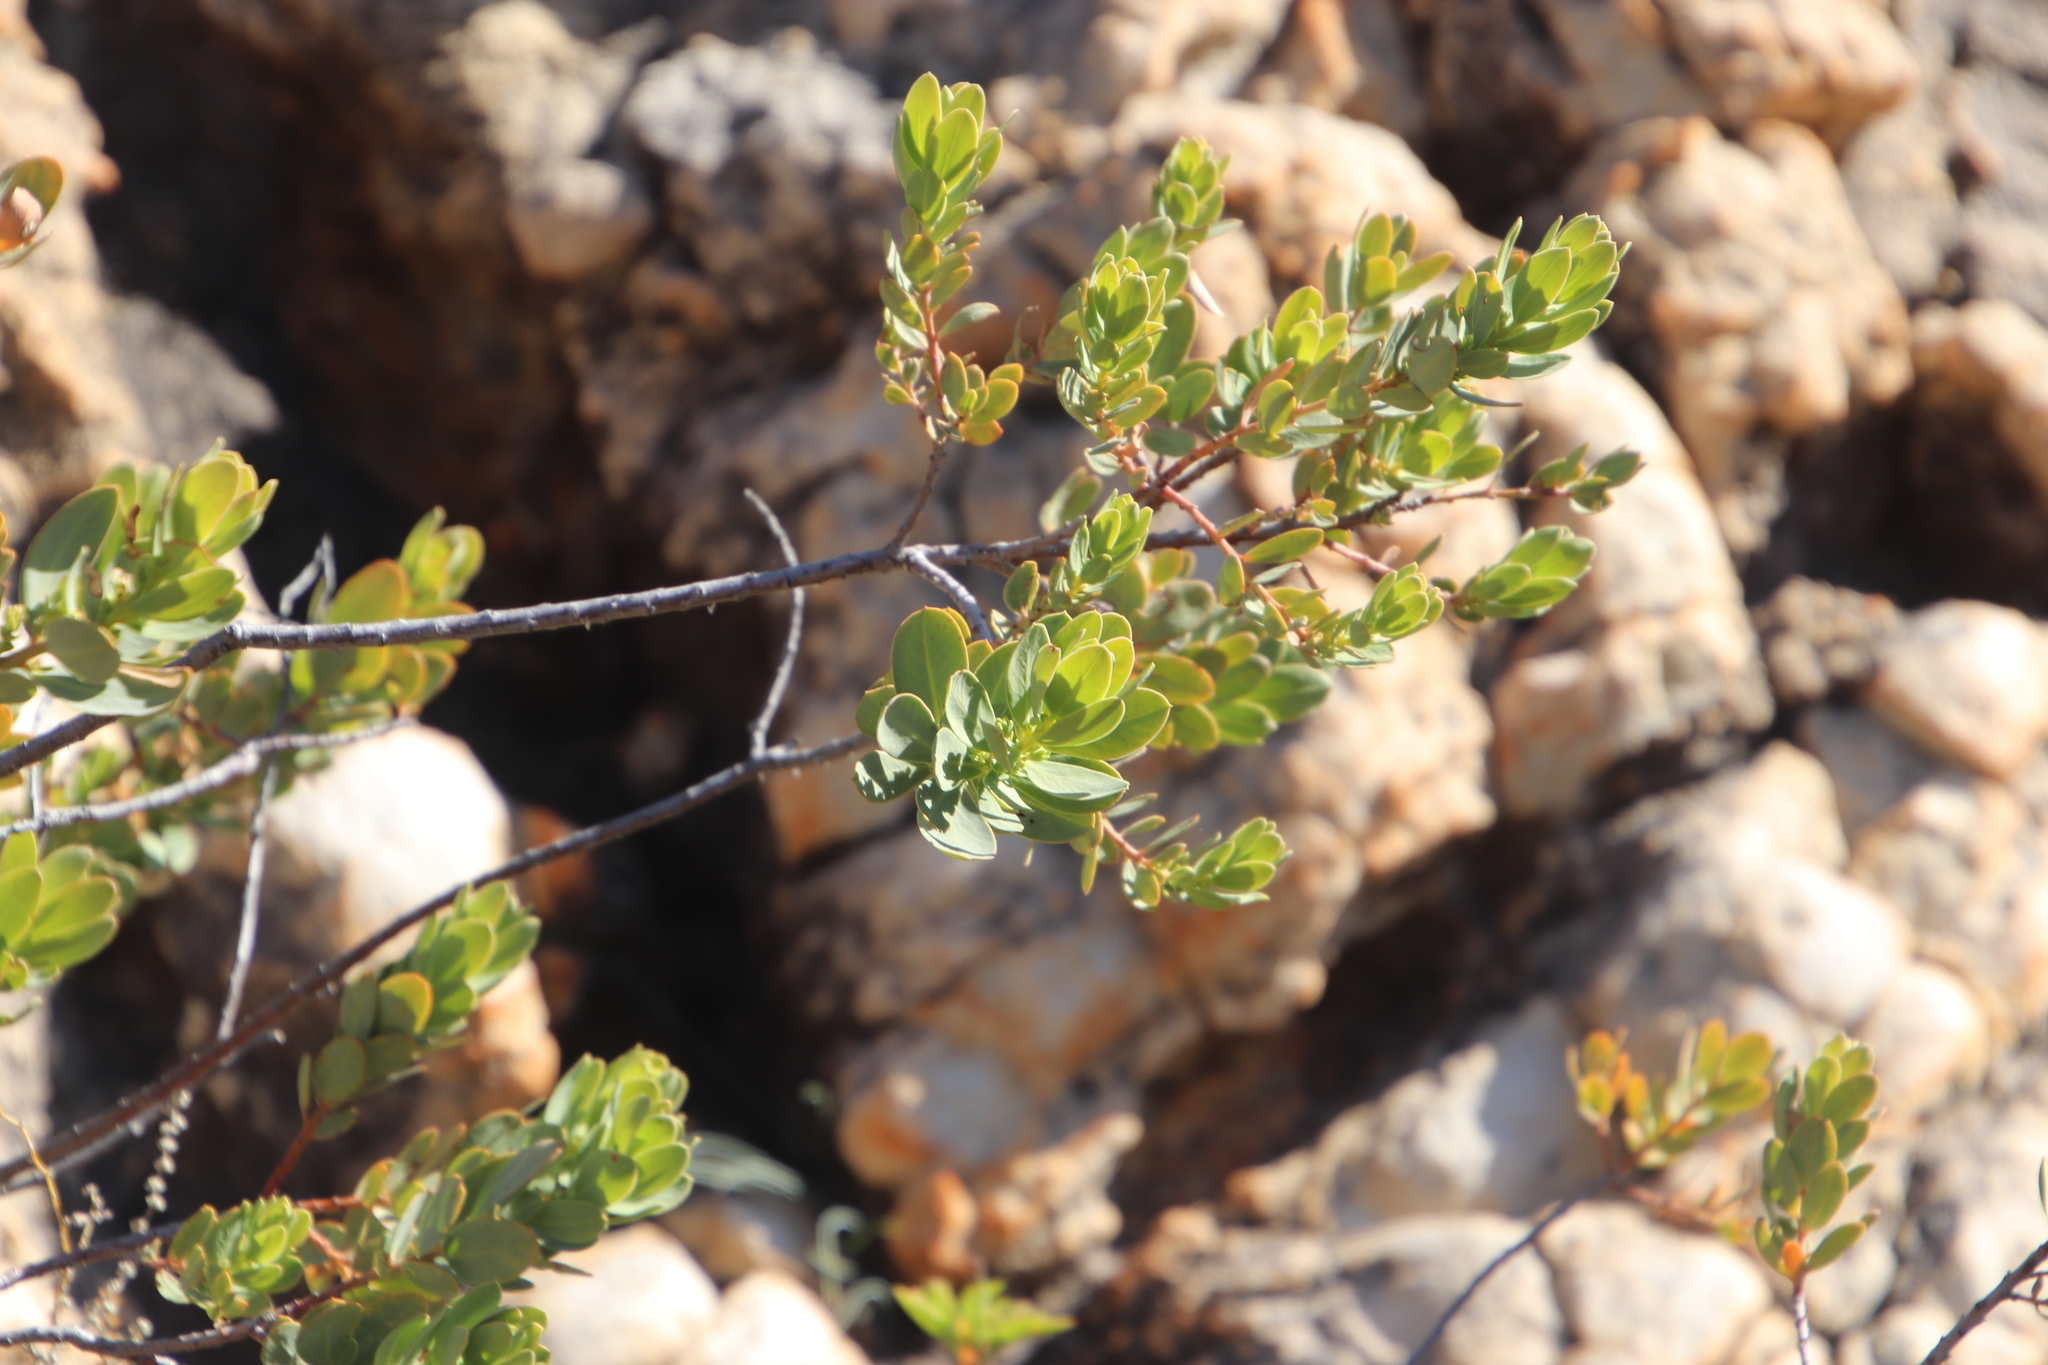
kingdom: Plantae
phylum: Tracheophyta
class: Magnoliopsida
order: Malpighiales
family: Peraceae
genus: Clutia
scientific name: Clutia africana
